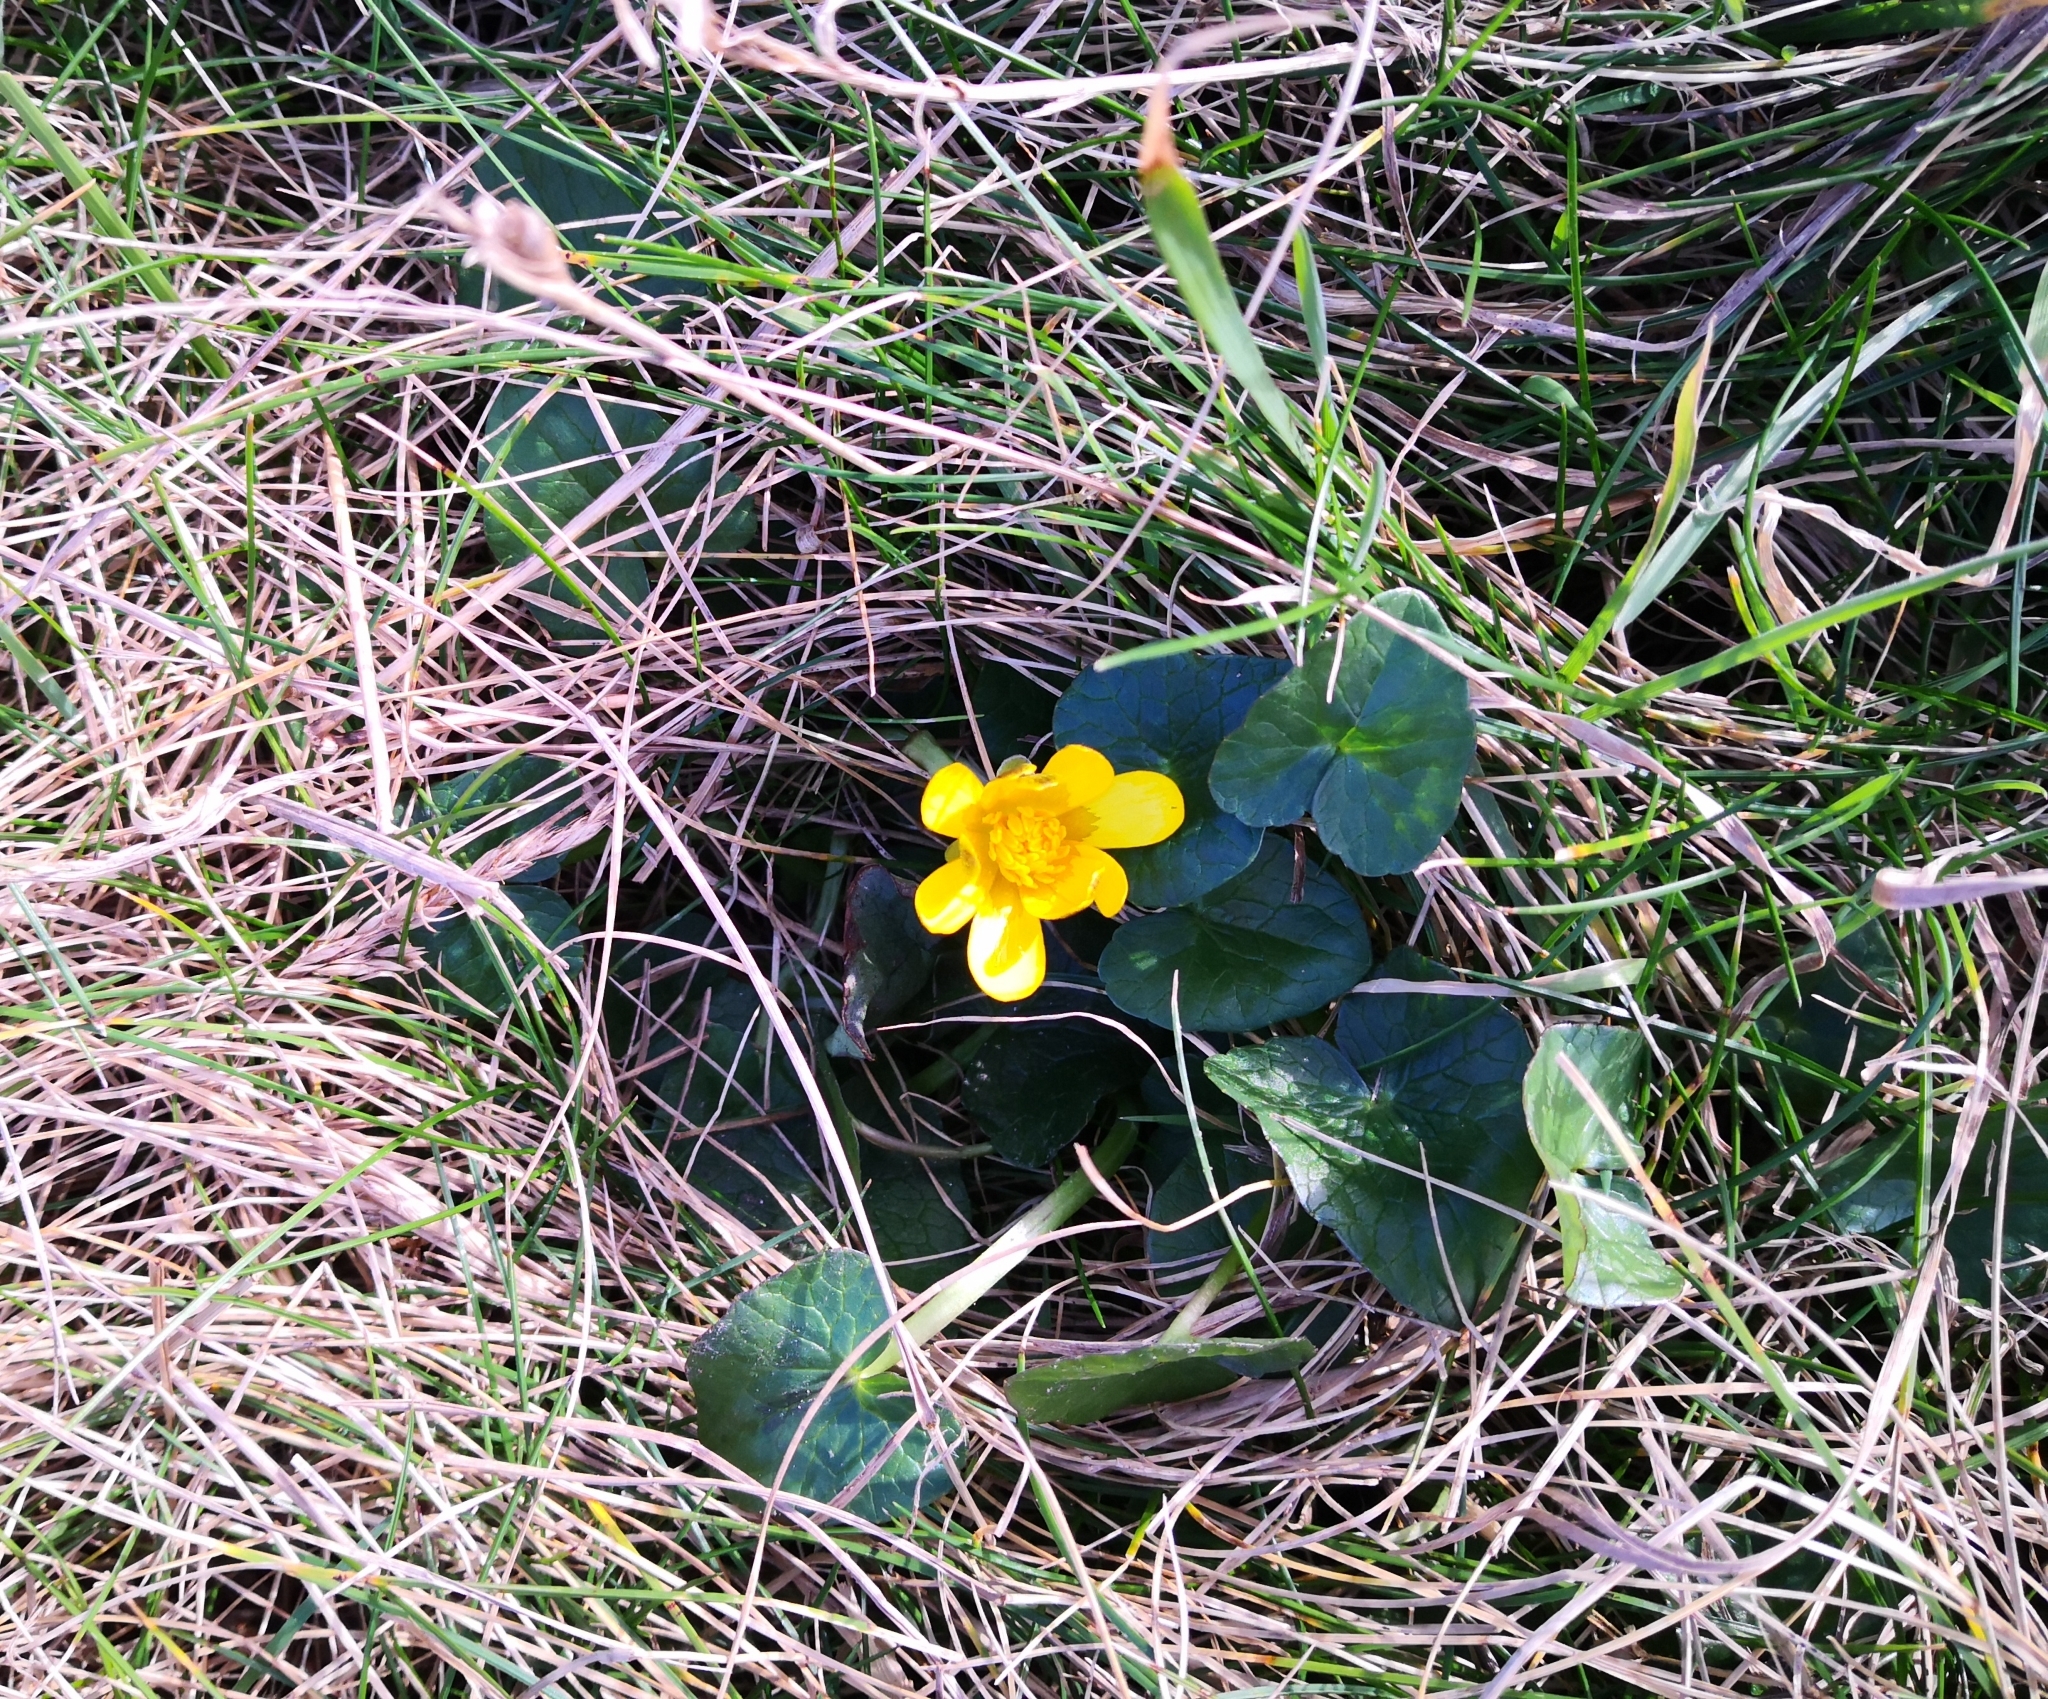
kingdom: Plantae
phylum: Tracheophyta
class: Magnoliopsida
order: Ranunculales
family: Ranunculaceae
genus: Ficaria
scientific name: Ficaria verna
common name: Lesser celandine
